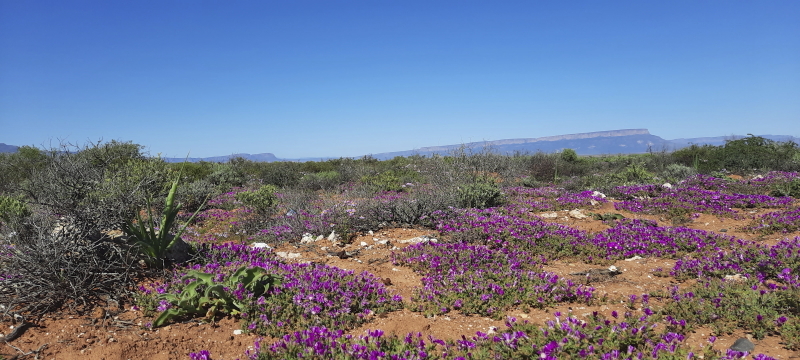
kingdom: Plantae
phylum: Tracheophyta
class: Magnoliopsida
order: Caryophyllales
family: Aizoaceae
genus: Drosanthemum
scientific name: Drosanthemum hispidum
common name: Hairy dewflower
